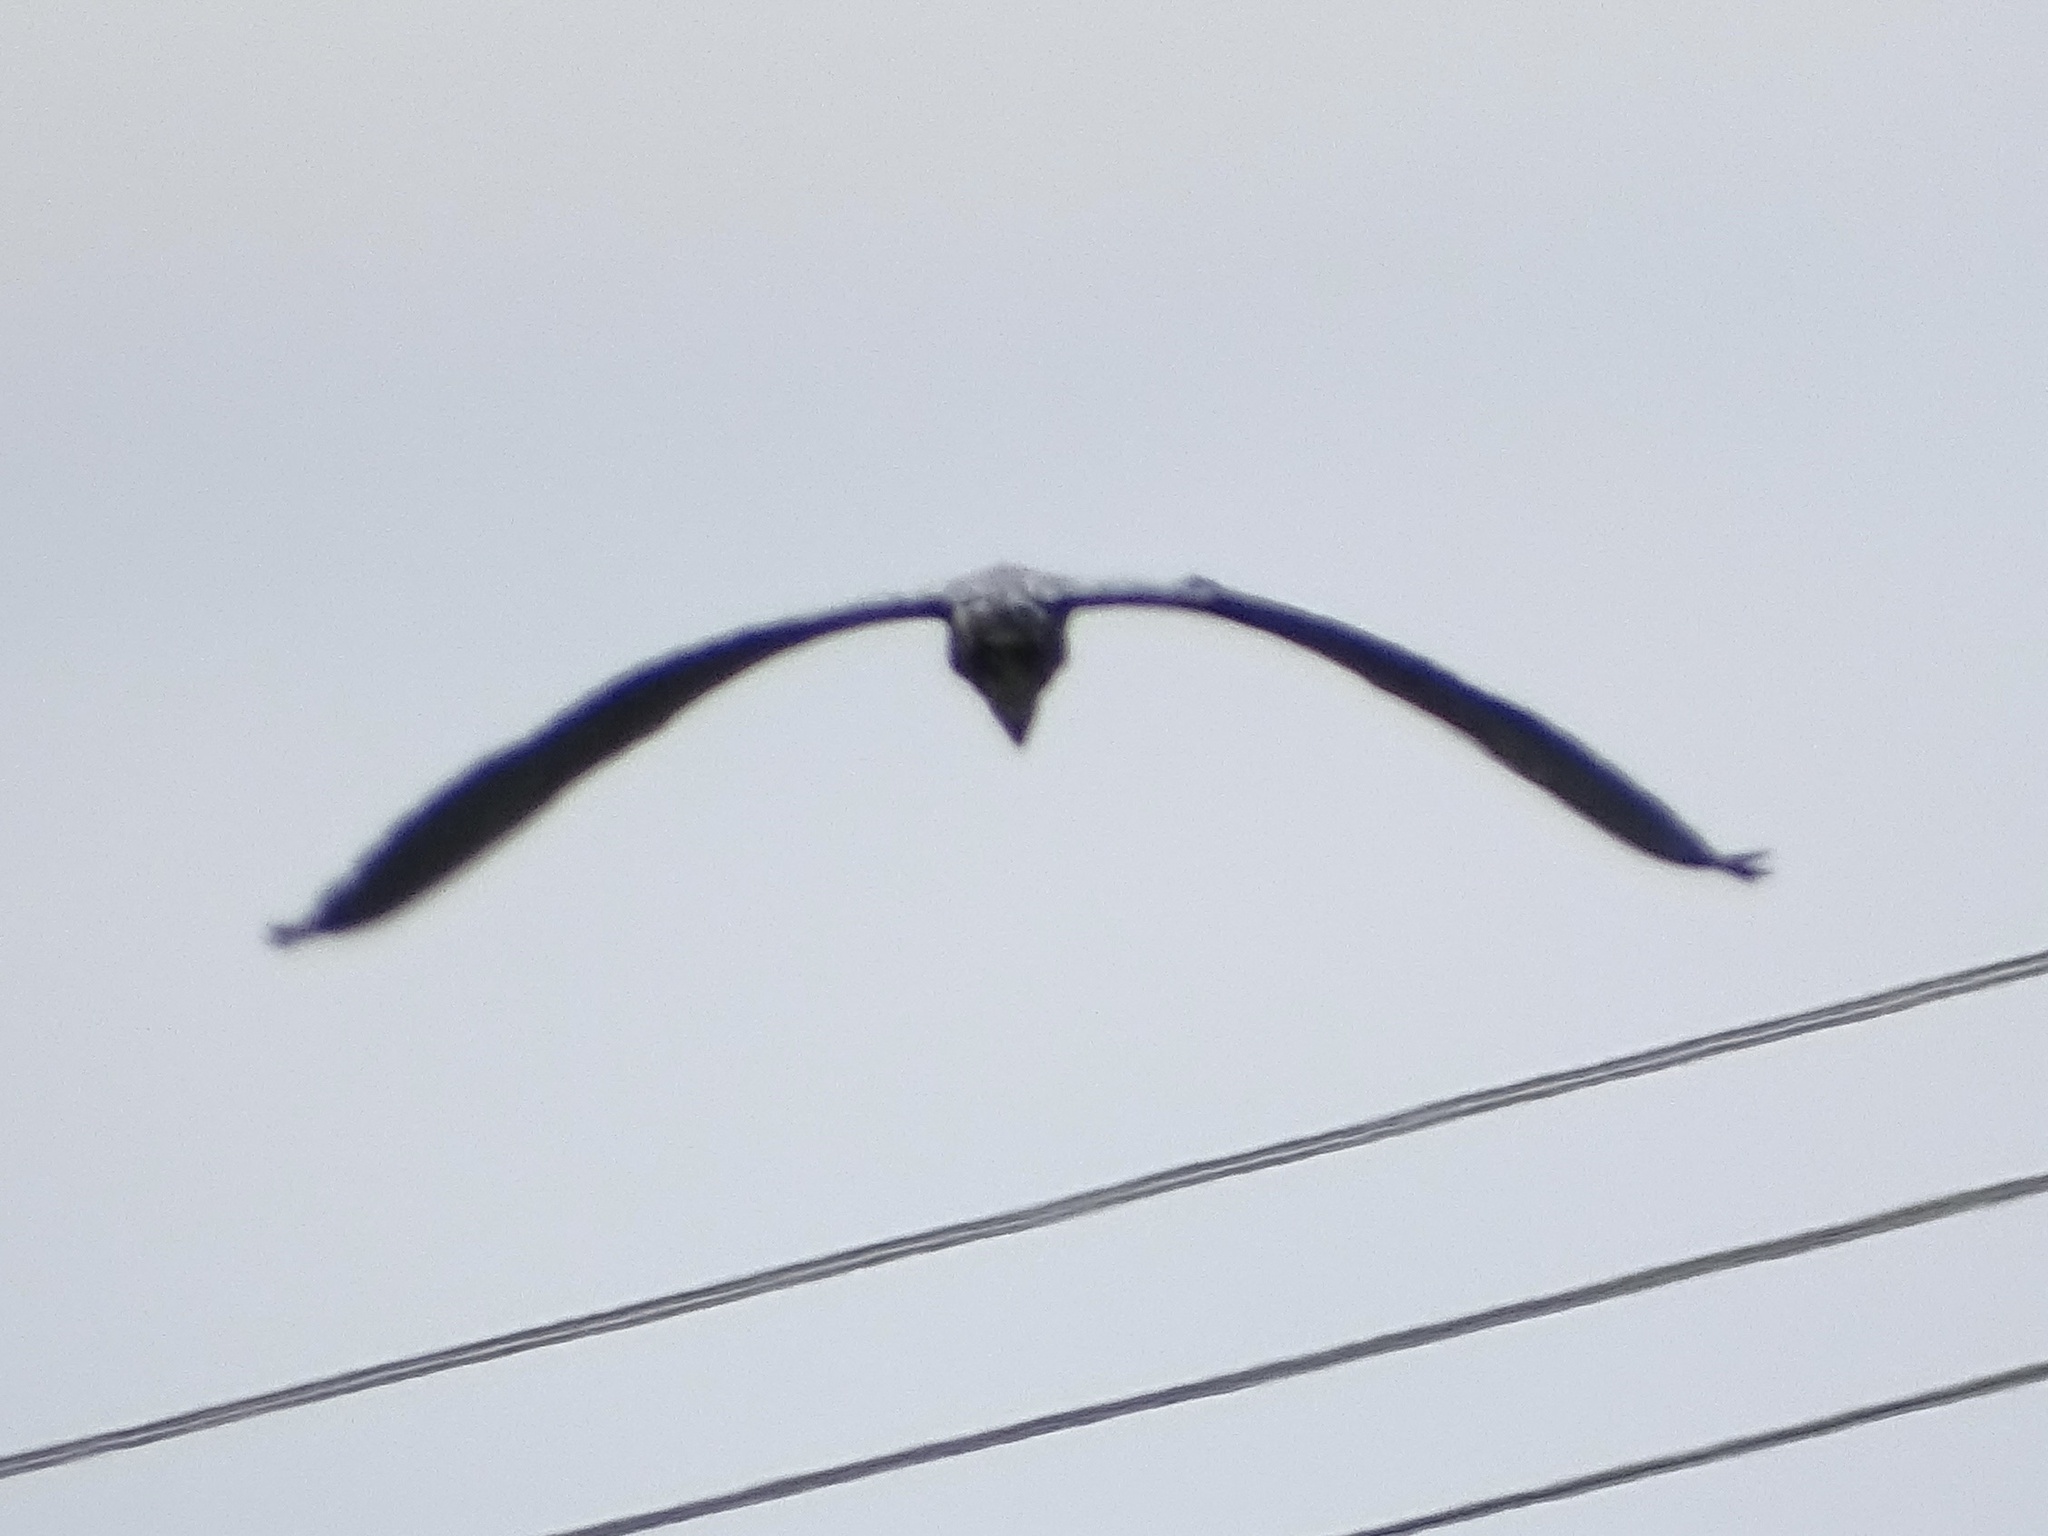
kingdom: Animalia
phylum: Chordata
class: Aves
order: Pelecaniformes
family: Ardeidae
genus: Ardea
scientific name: Ardea herodias
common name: Great blue heron
